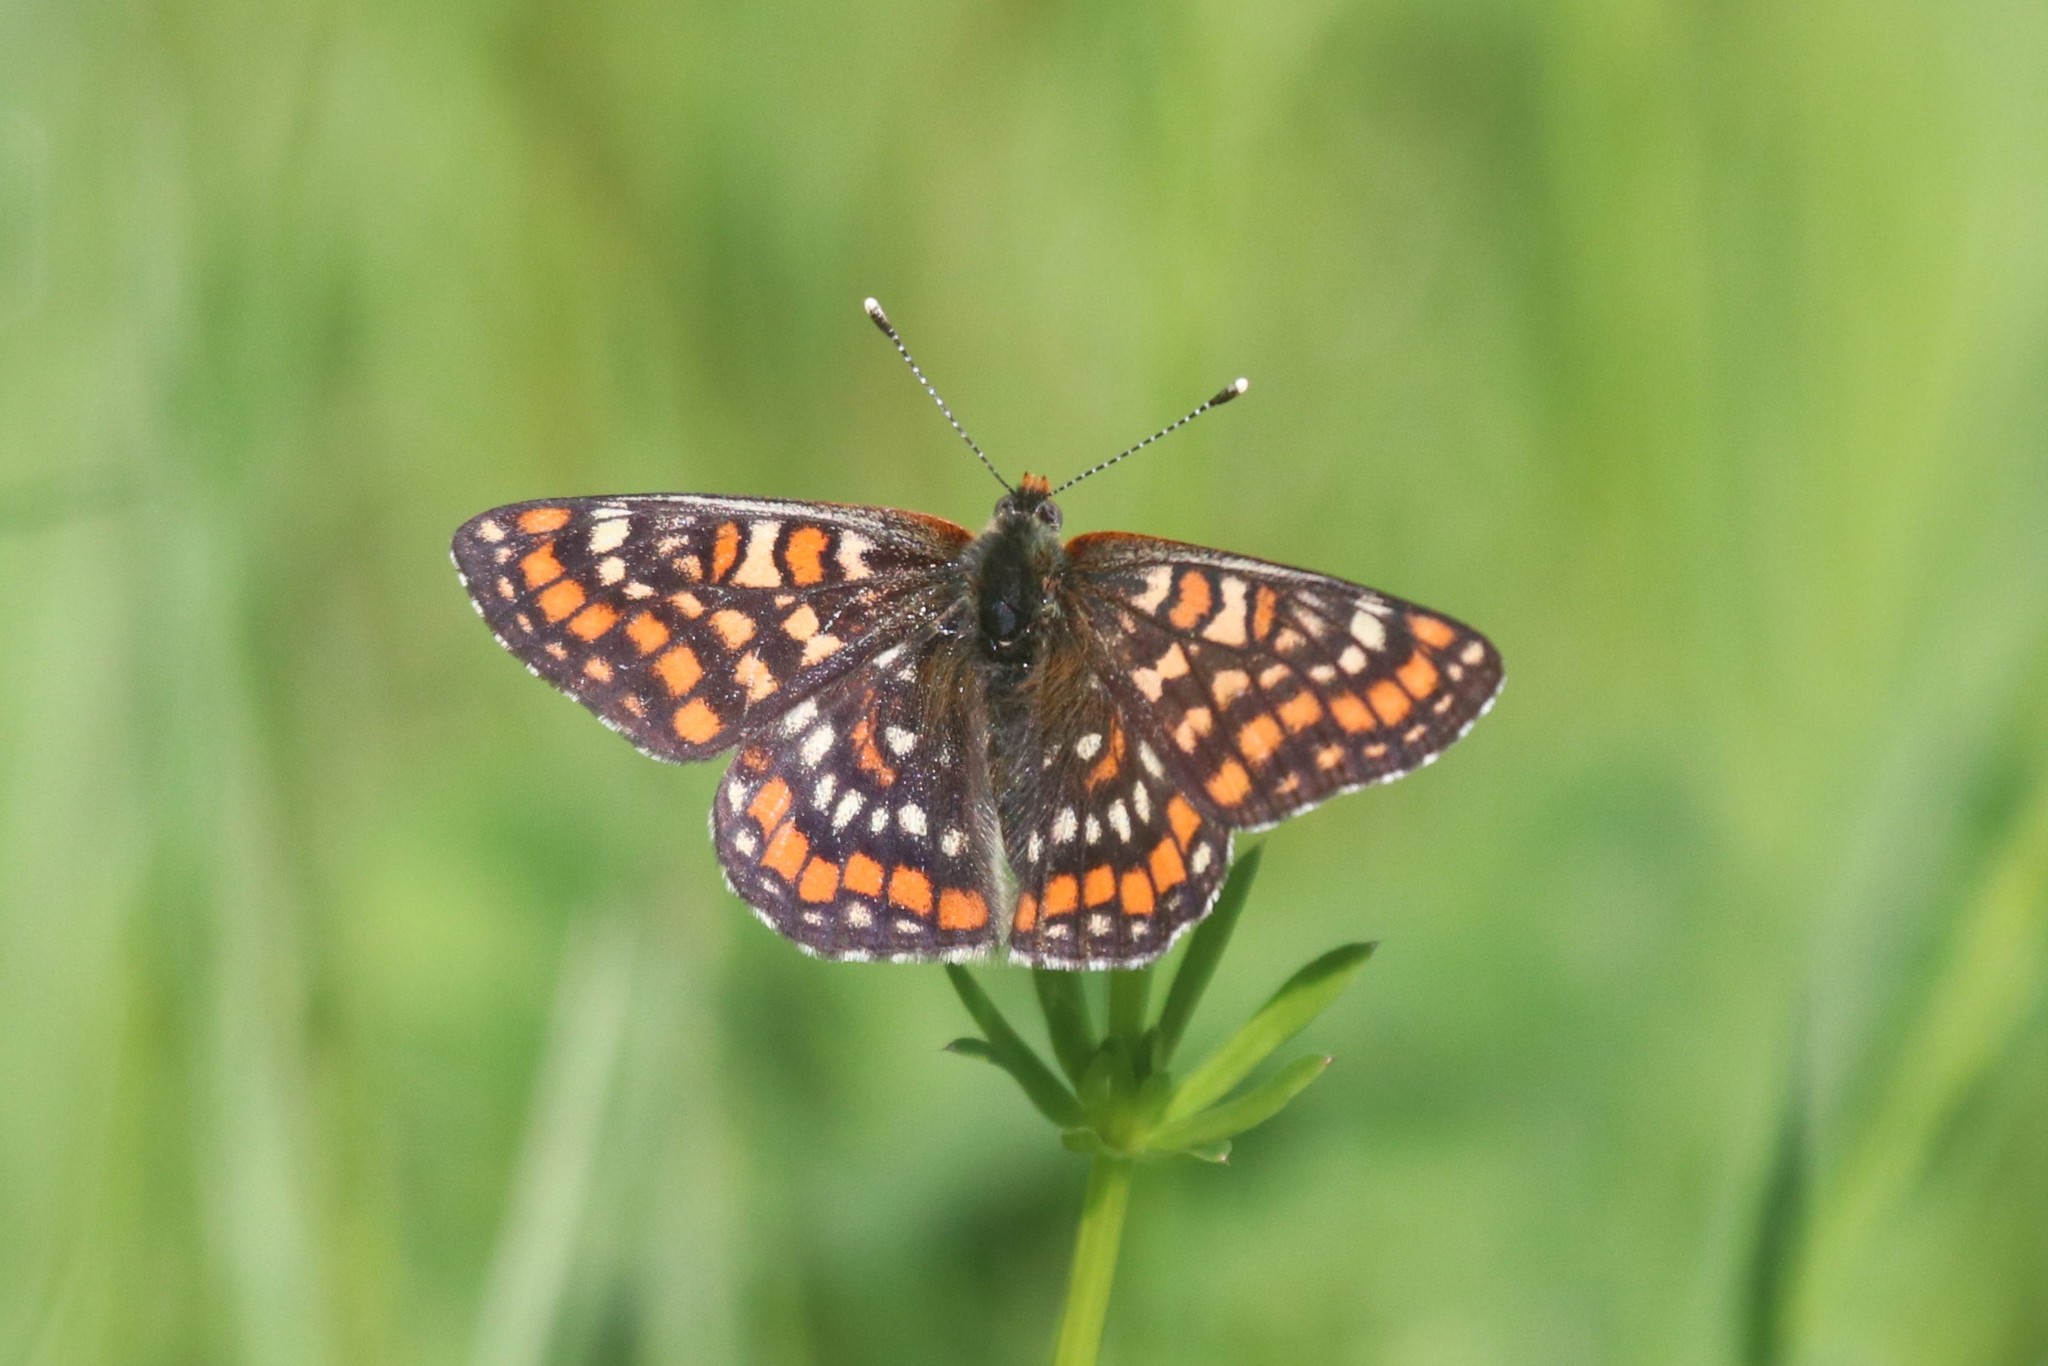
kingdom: Animalia
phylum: Arthropoda
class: Insecta
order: Lepidoptera
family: Nymphalidae
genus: Euphydryas
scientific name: Euphydryas maturna
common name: Scarce fritillary
